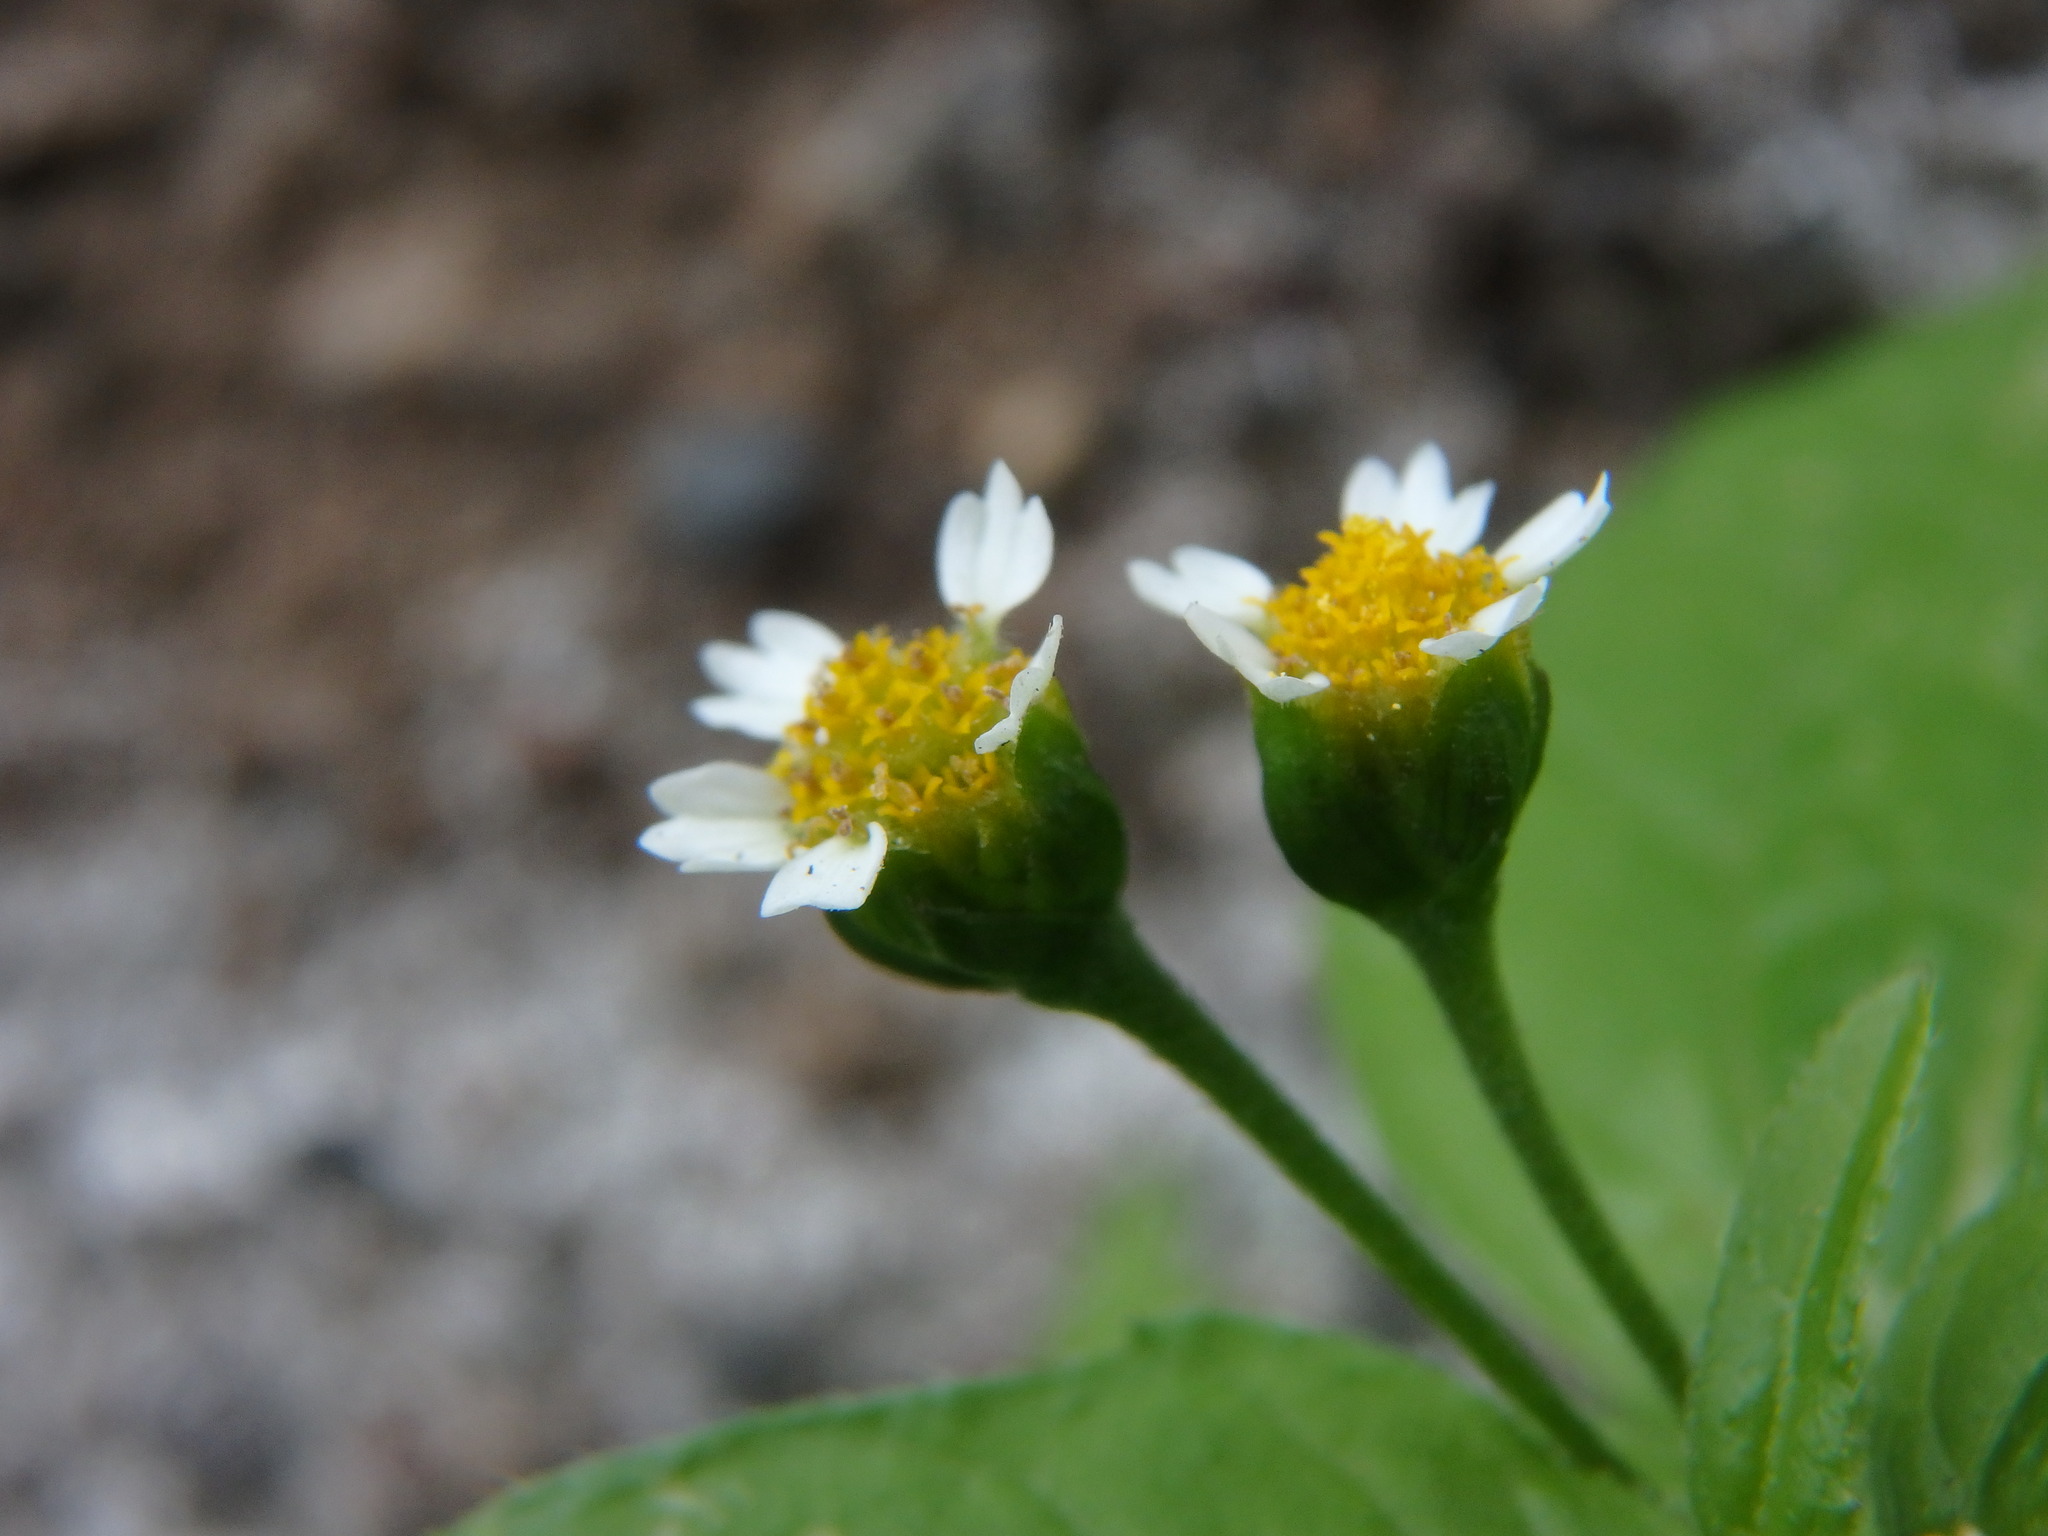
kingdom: Plantae
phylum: Tracheophyta
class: Magnoliopsida
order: Asterales
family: Asteraceae
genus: Galinsoga
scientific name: Galinsoga parviflora
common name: Gallant soldier
